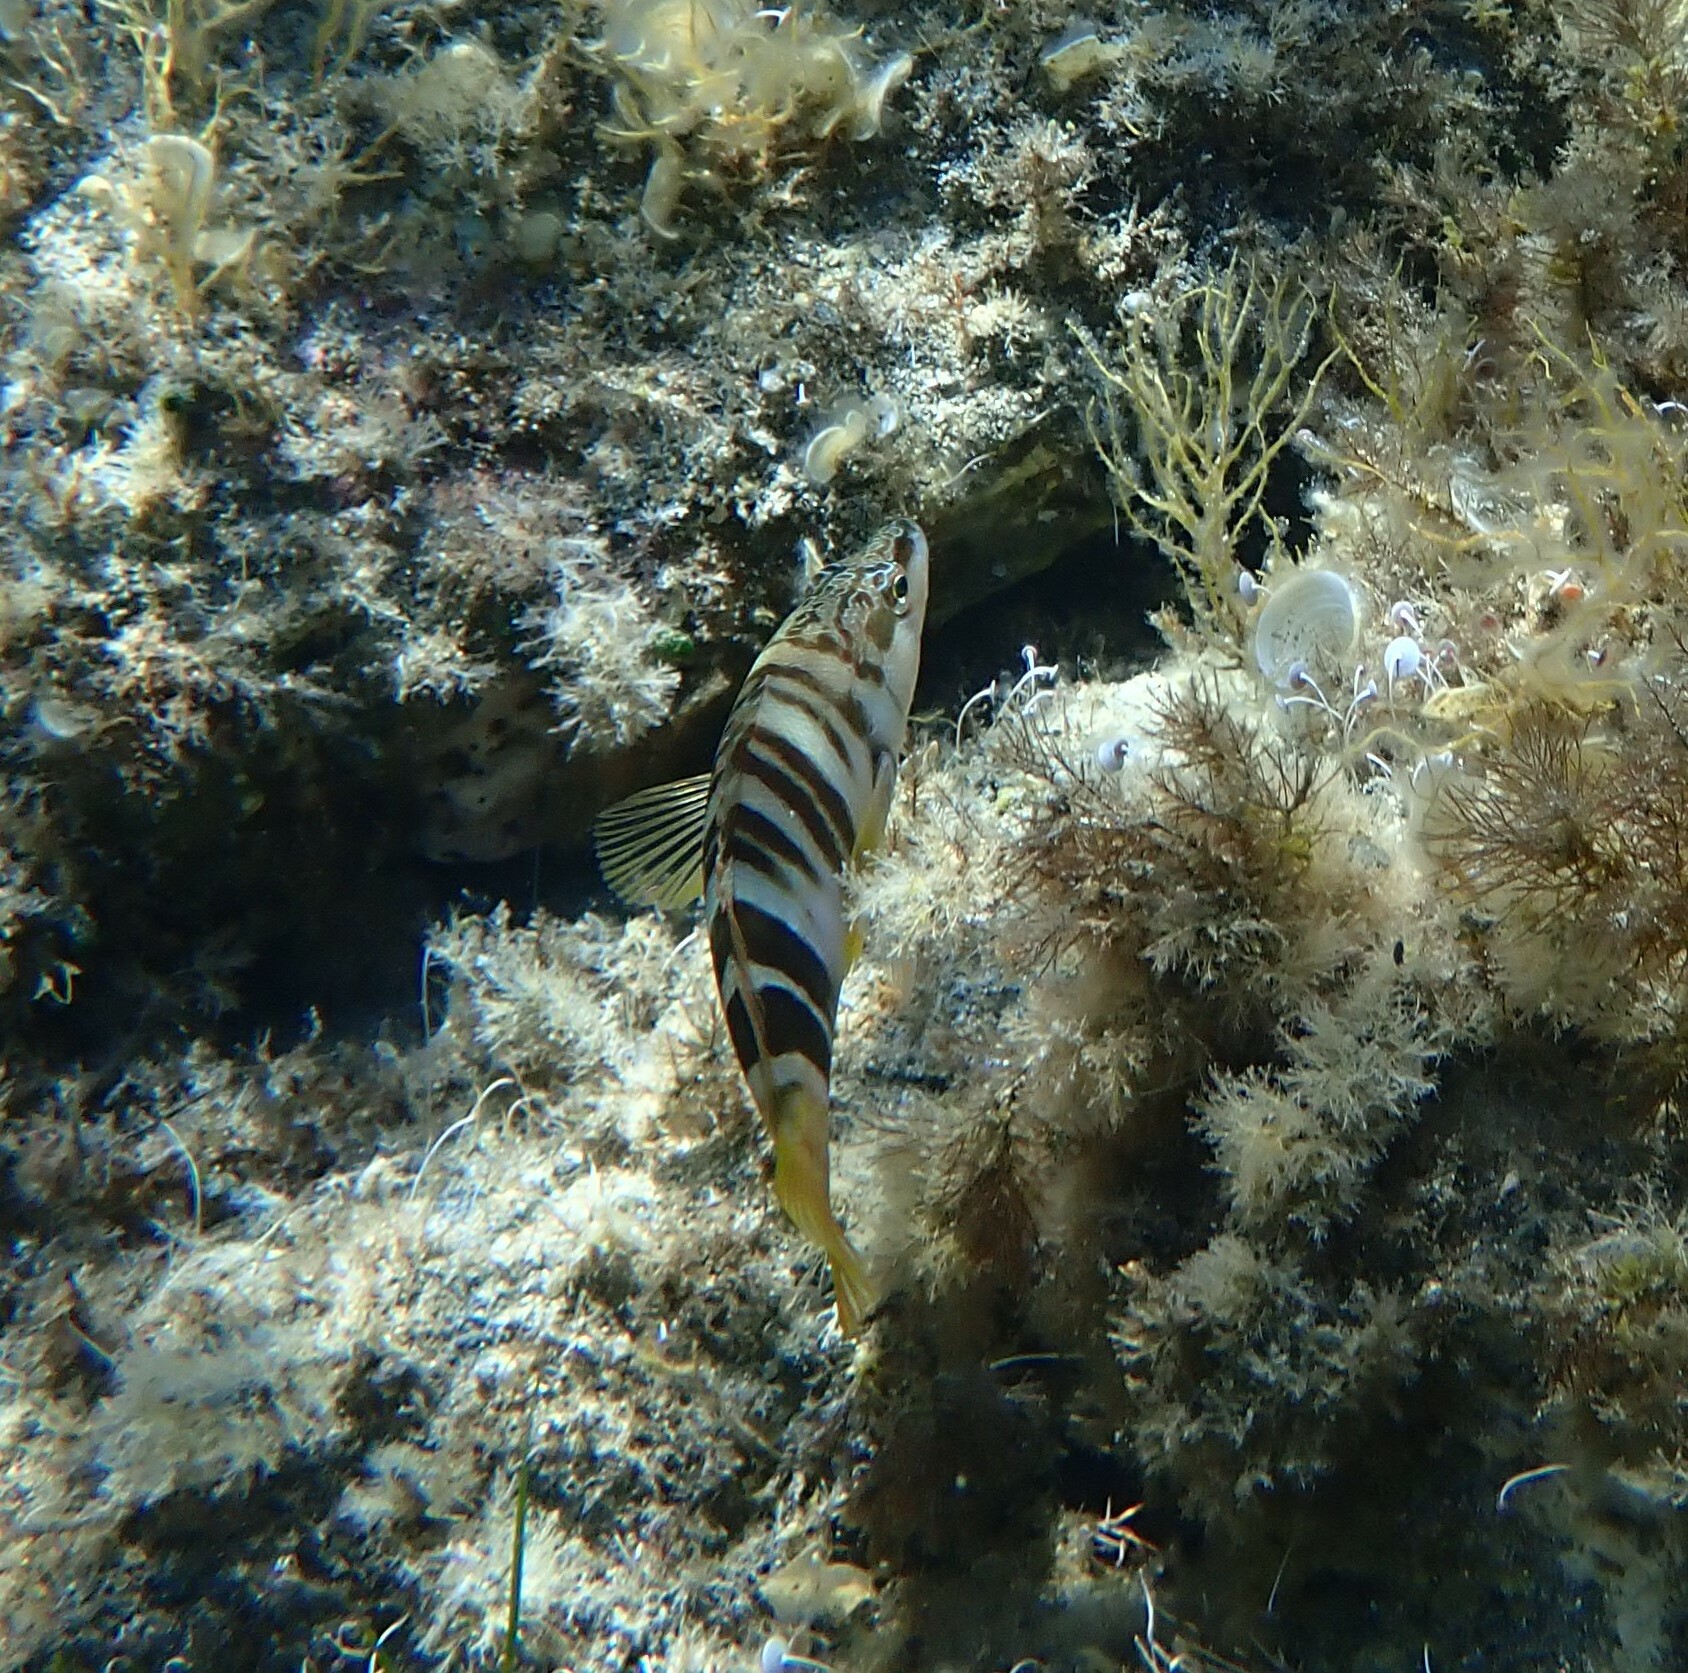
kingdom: Animalia
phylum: Chordata
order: Perciformes
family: Serranidae
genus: Serranus
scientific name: Serranus scriba
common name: Painted comber
